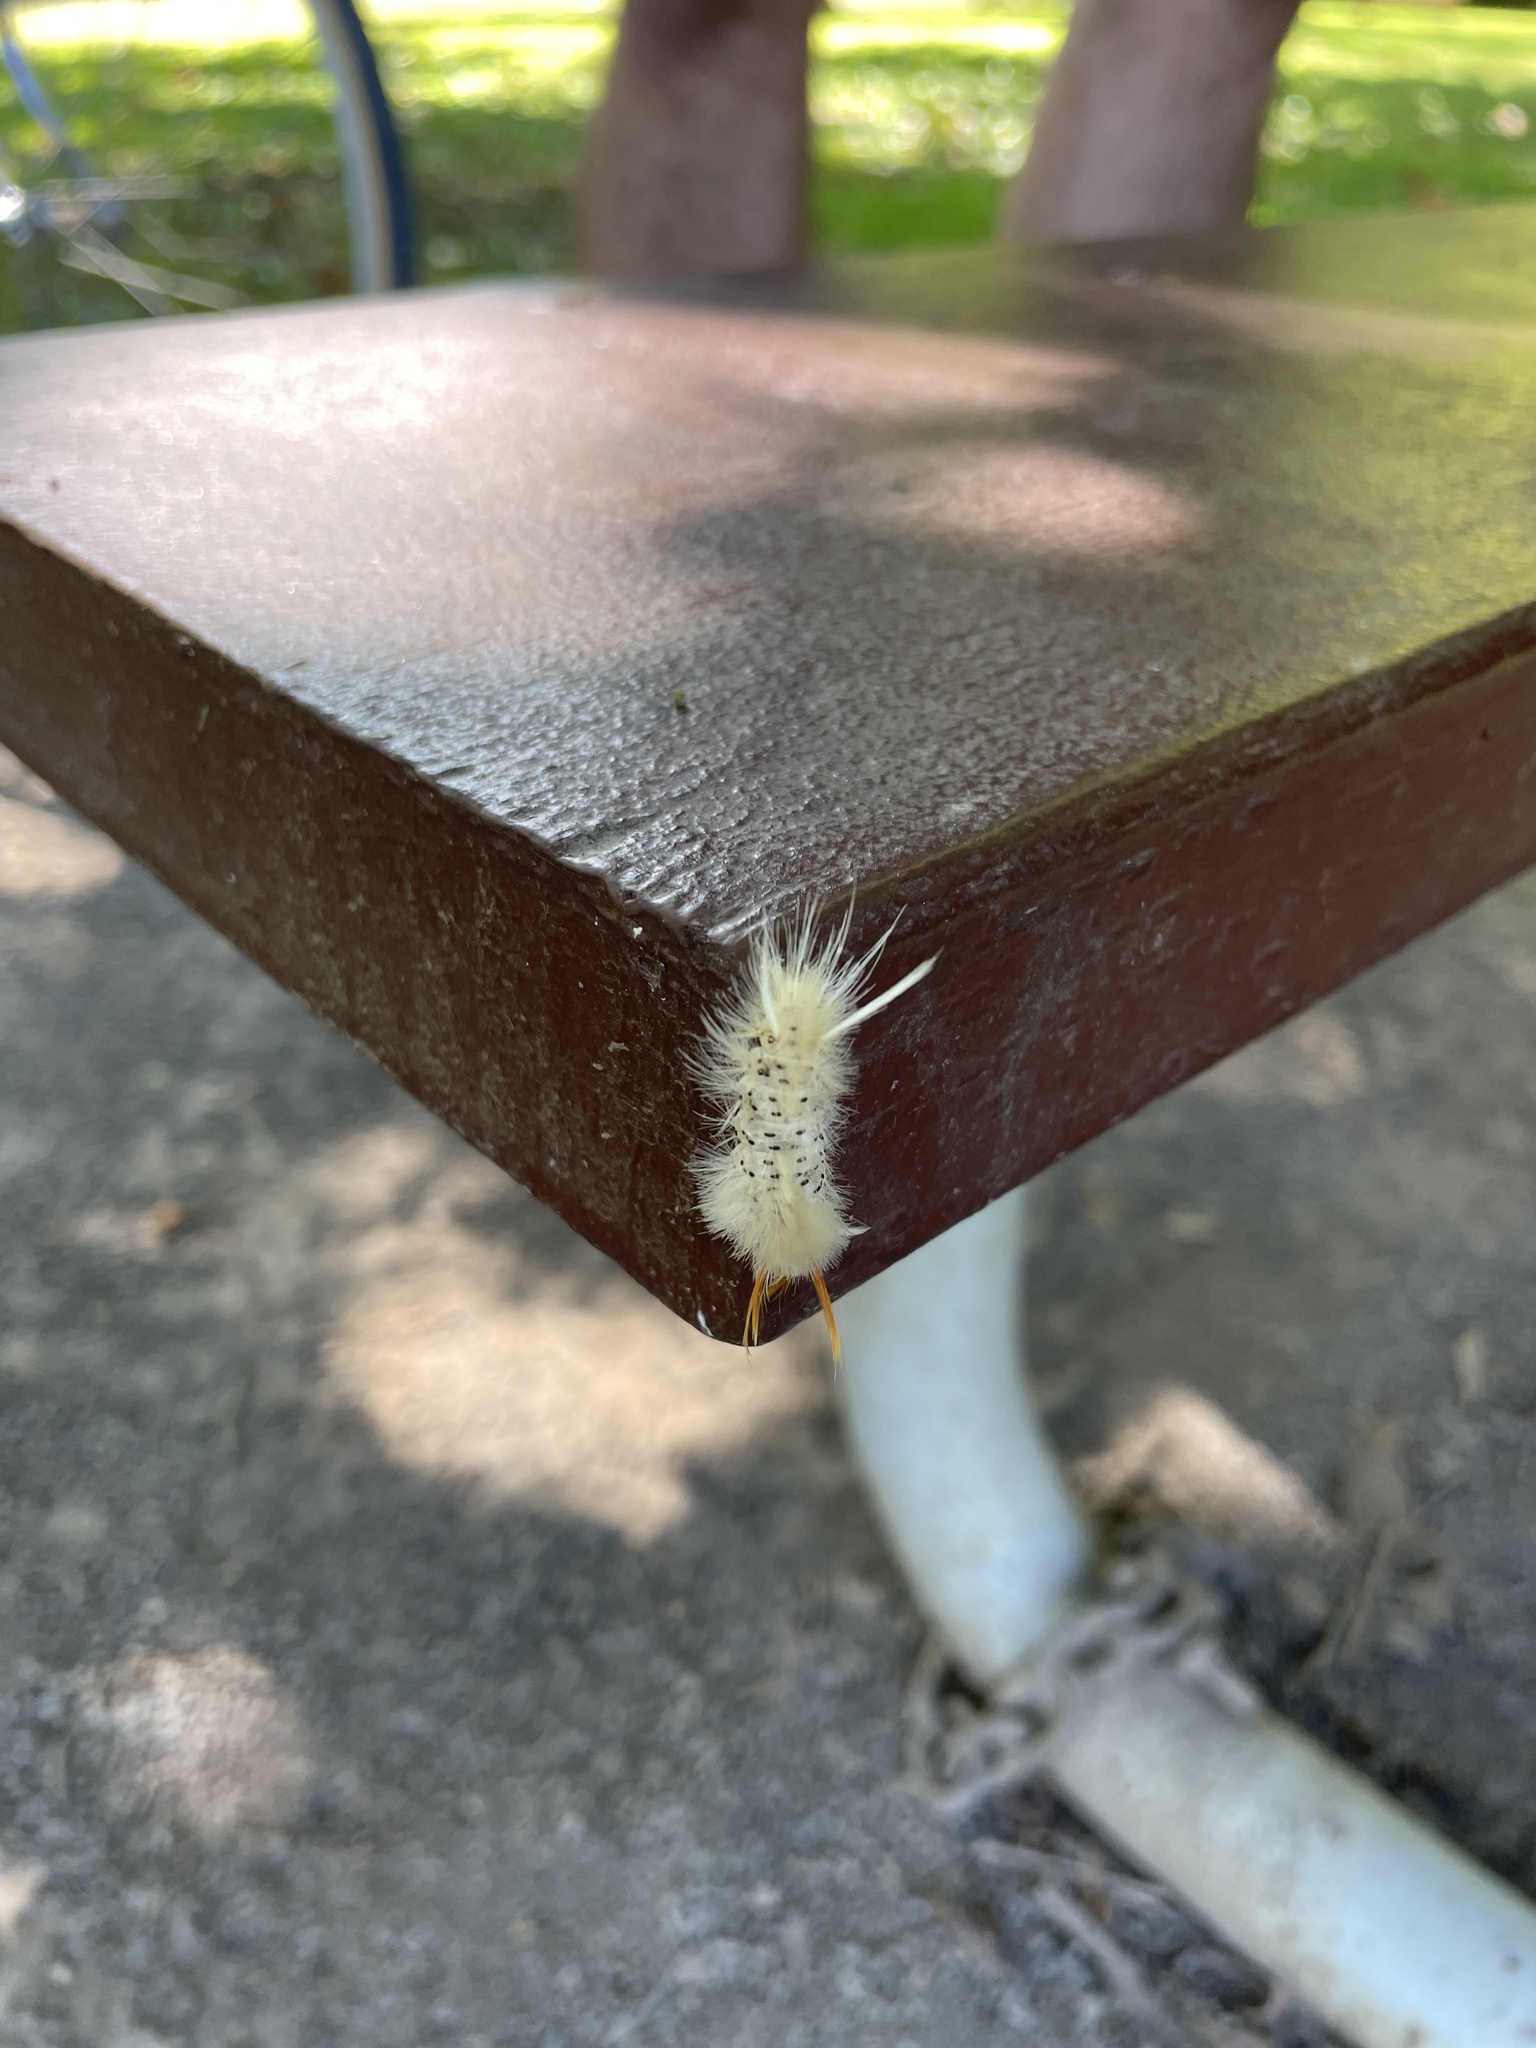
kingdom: Animalia
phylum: Arthropoda
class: Insecta
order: Lepidoptera
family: Erebidae
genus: Halysidota
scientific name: Halysidota harrisii
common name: Sycamore tussock moth
